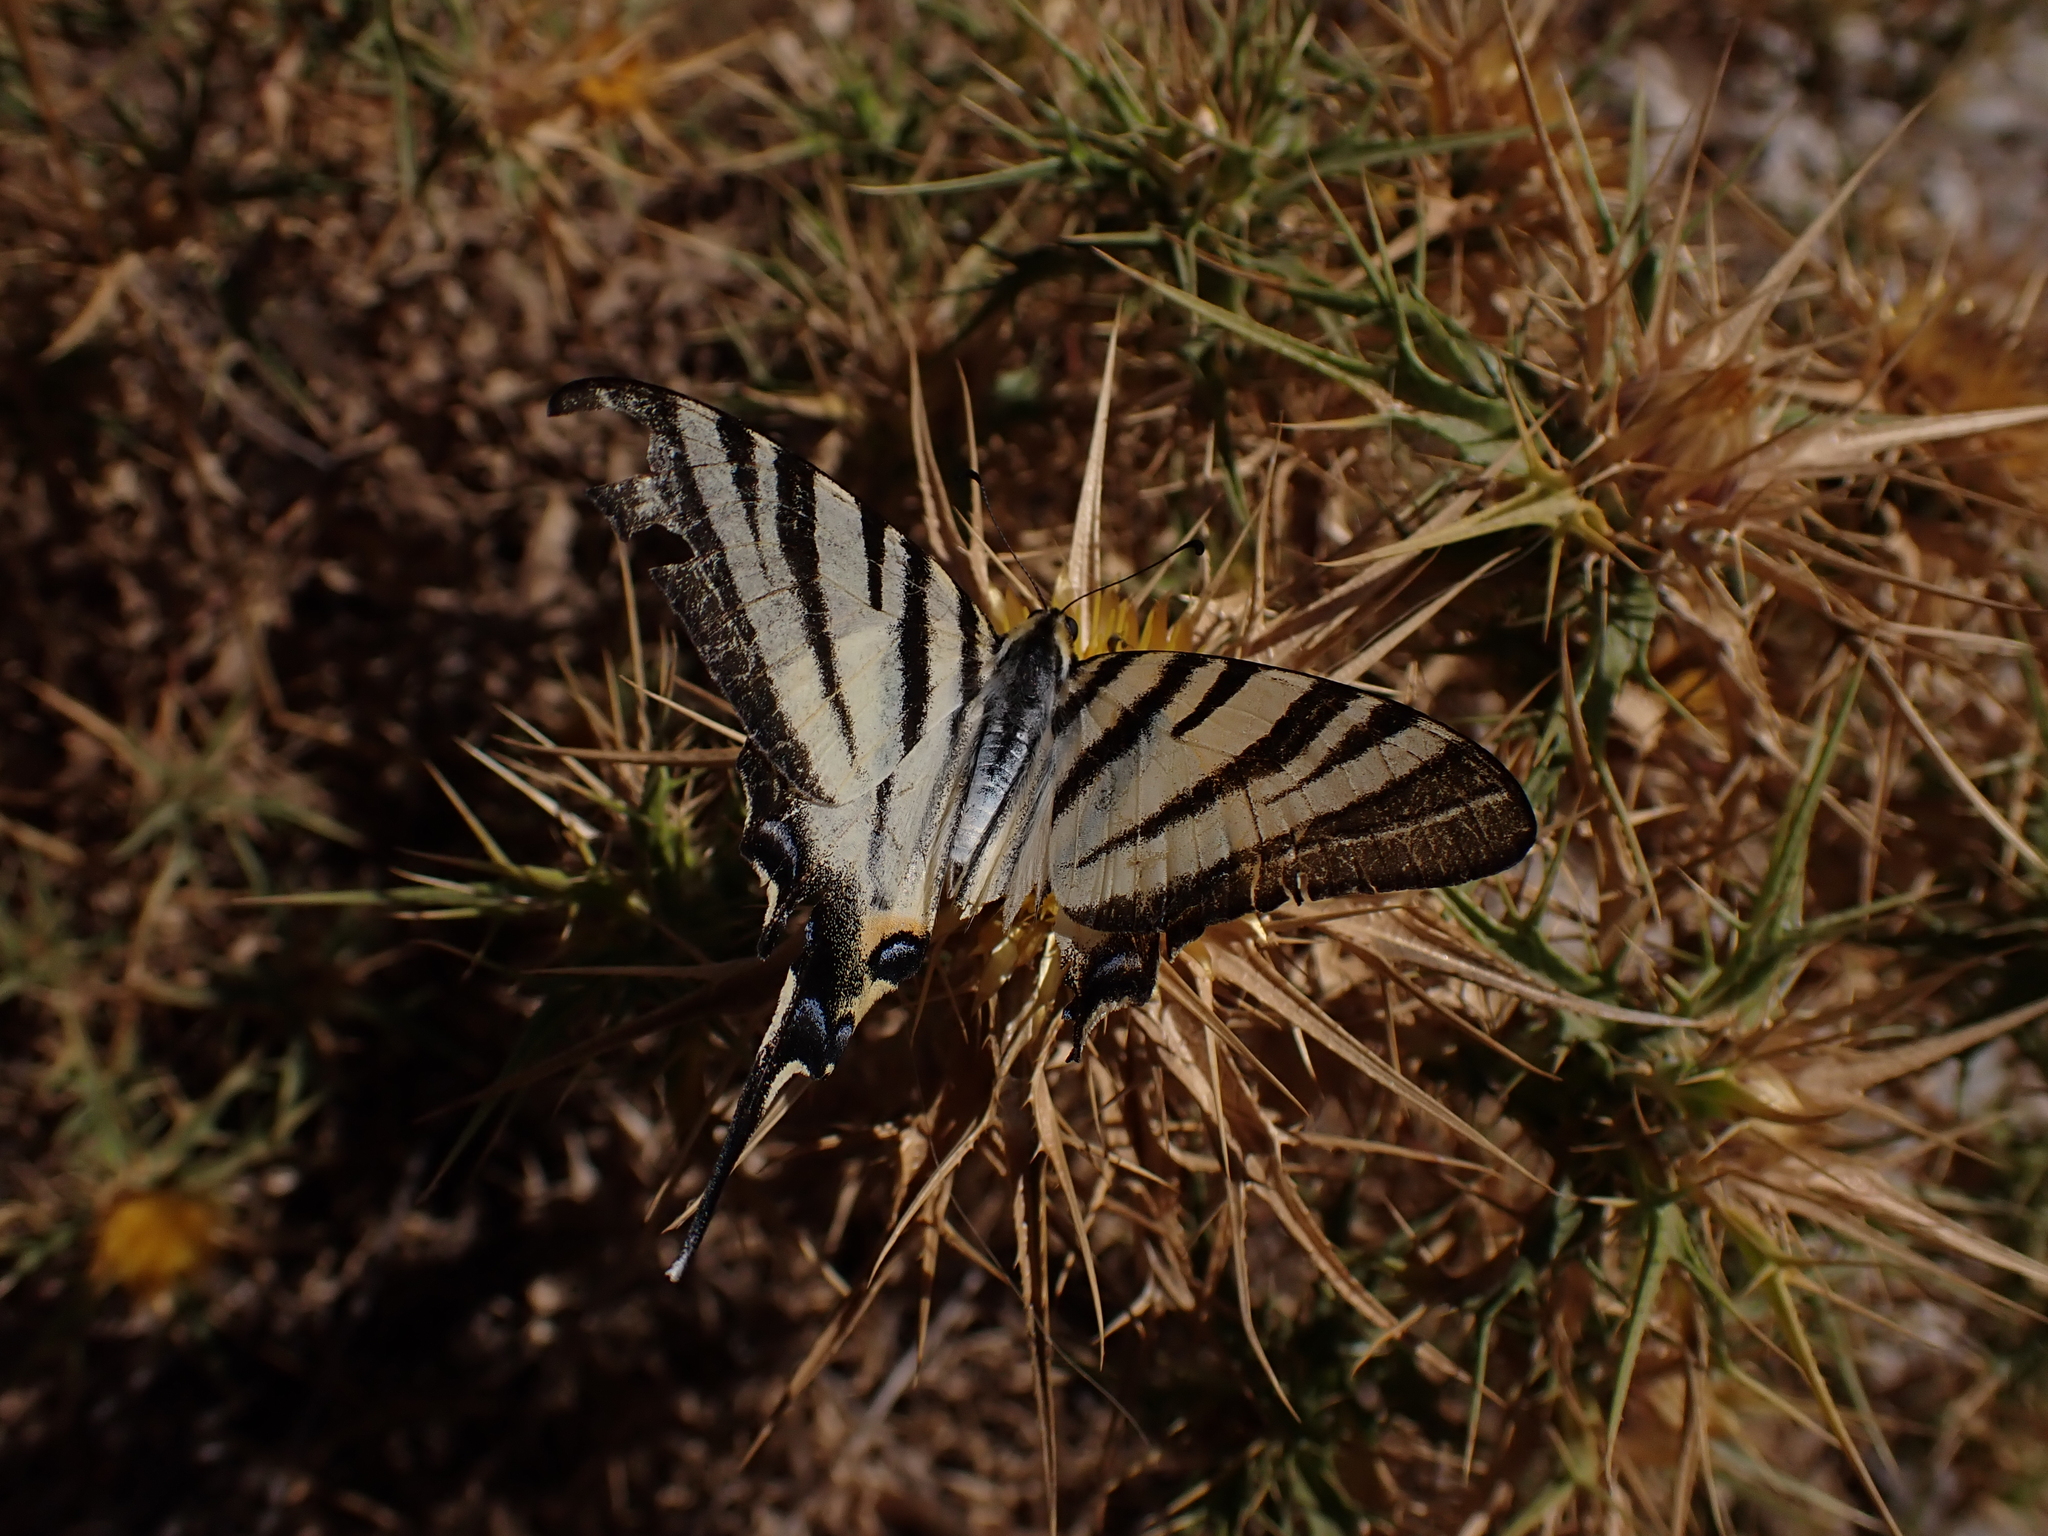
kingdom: Animalia
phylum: Arthropoda
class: Insecta
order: Lepidoptera
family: Papilionidae
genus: Iphiclides
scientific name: Iphiclides podalirius
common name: Scarce swallowtail
